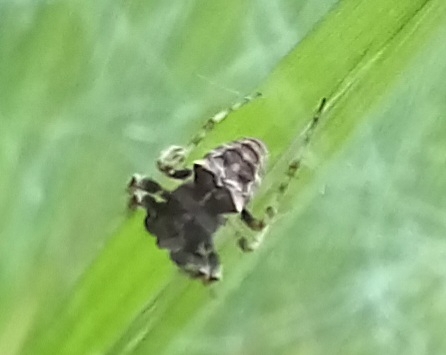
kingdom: Animalia
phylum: Arthropoda
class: Arachnida
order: Araneae
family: Araneidae
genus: Gibbaranea
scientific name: Gibbaranea bituberculata
